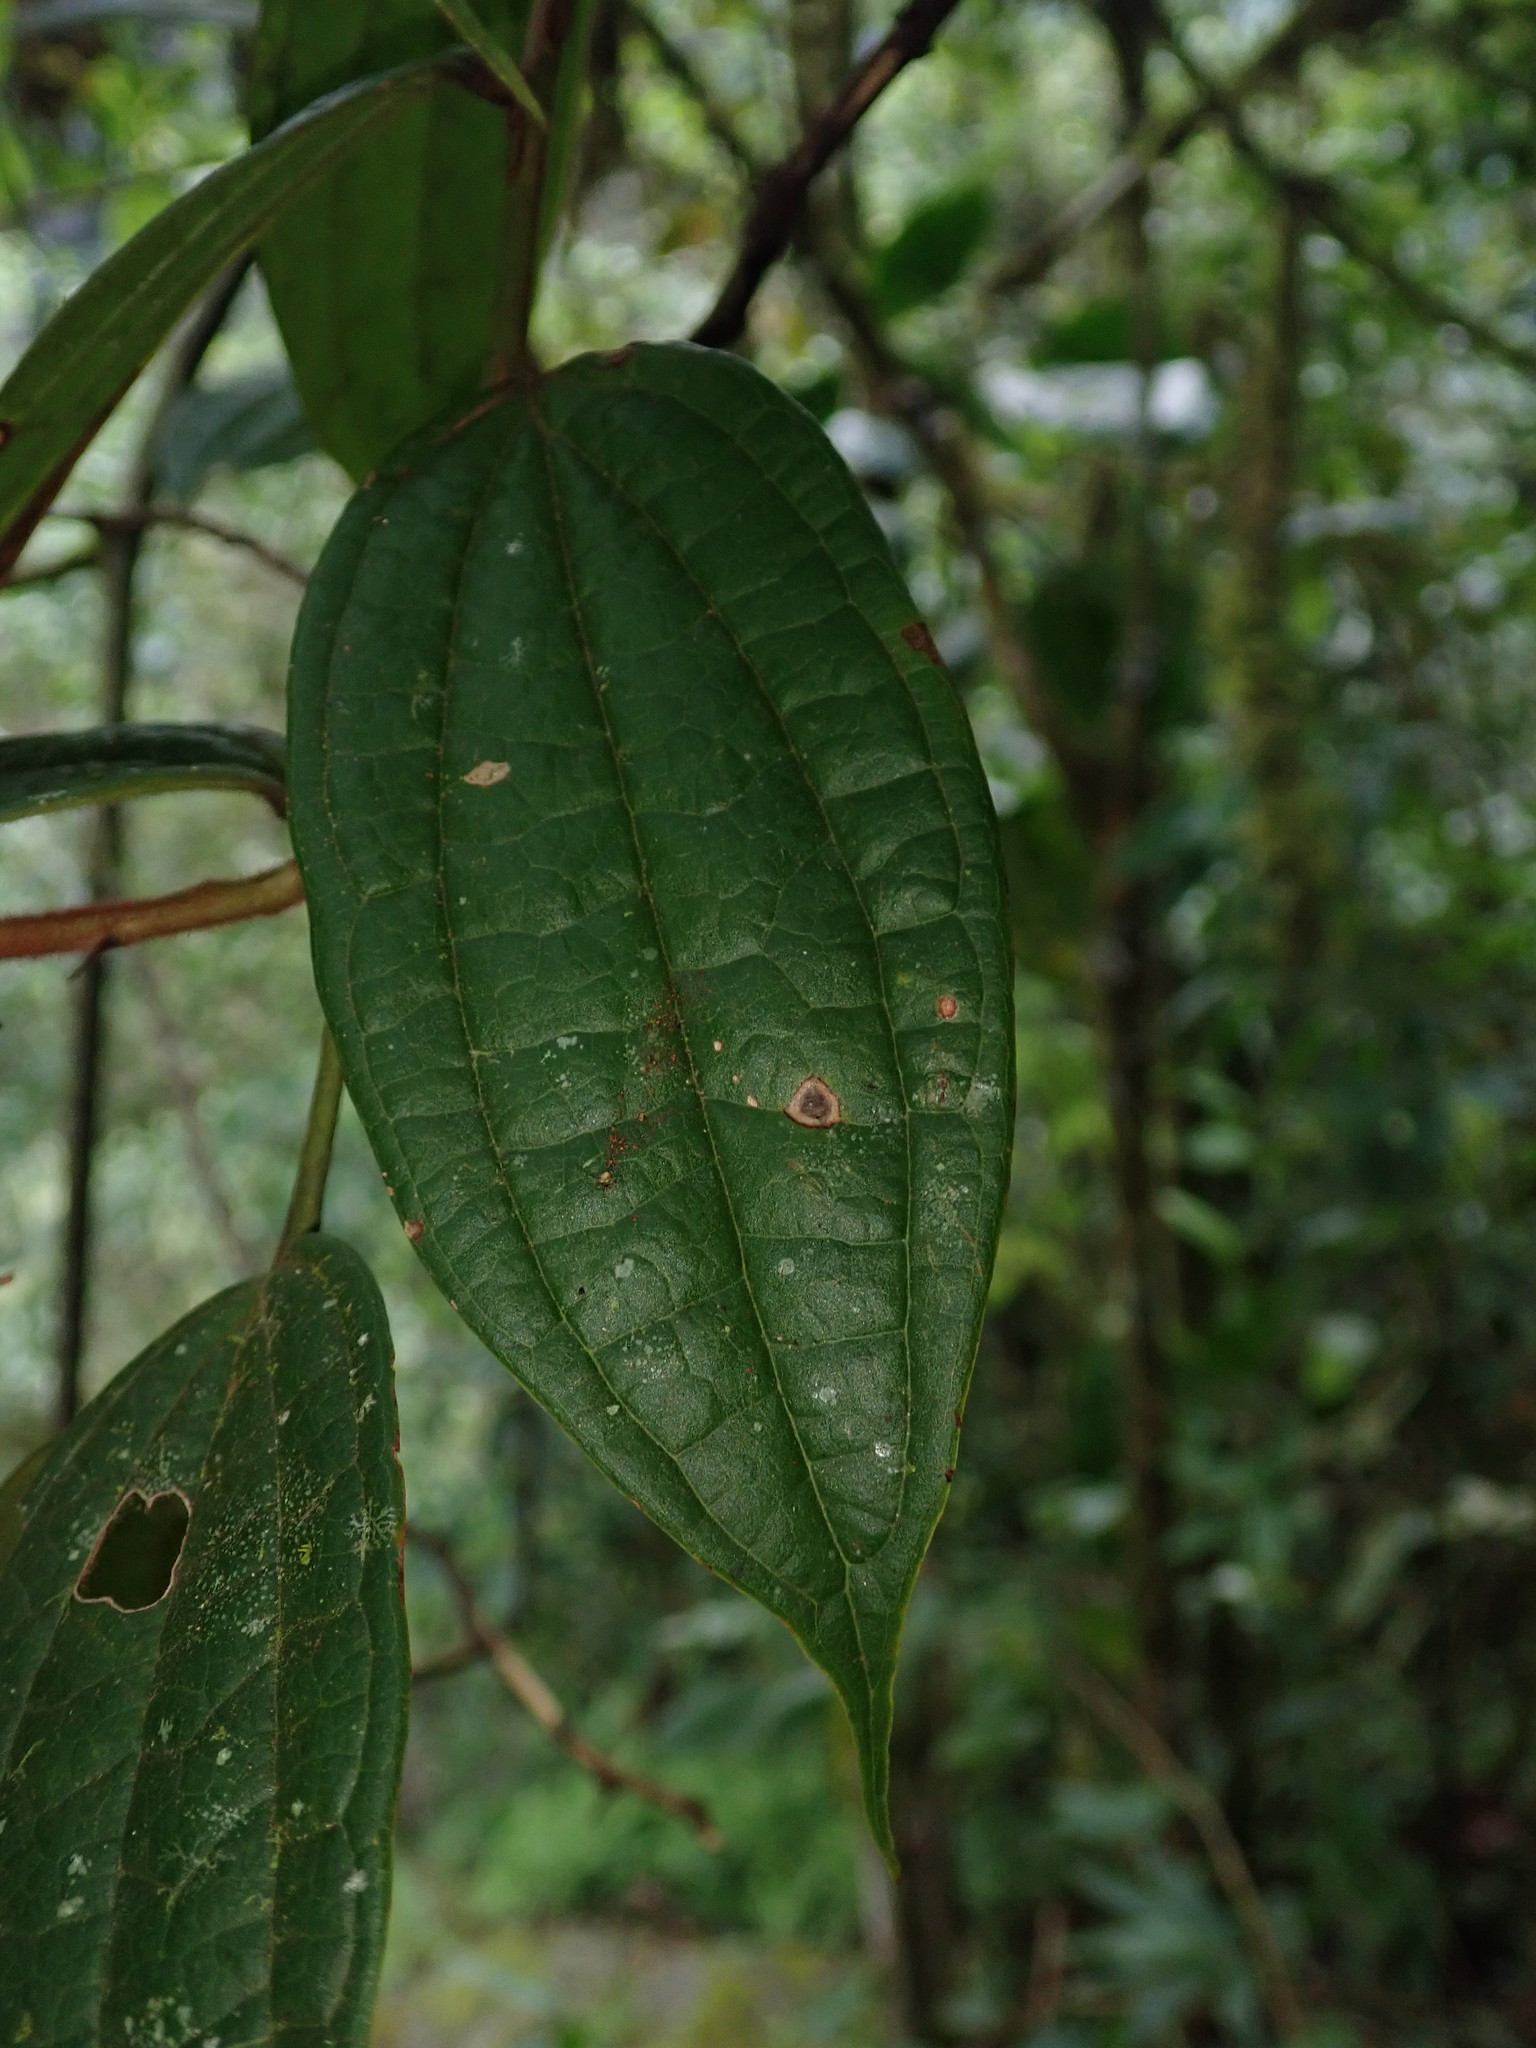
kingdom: Plantae
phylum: Tracheophyta
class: Magnoliopsida
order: Ericales
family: Ericaceae
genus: Psammisia
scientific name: Psammisia ferruginea
